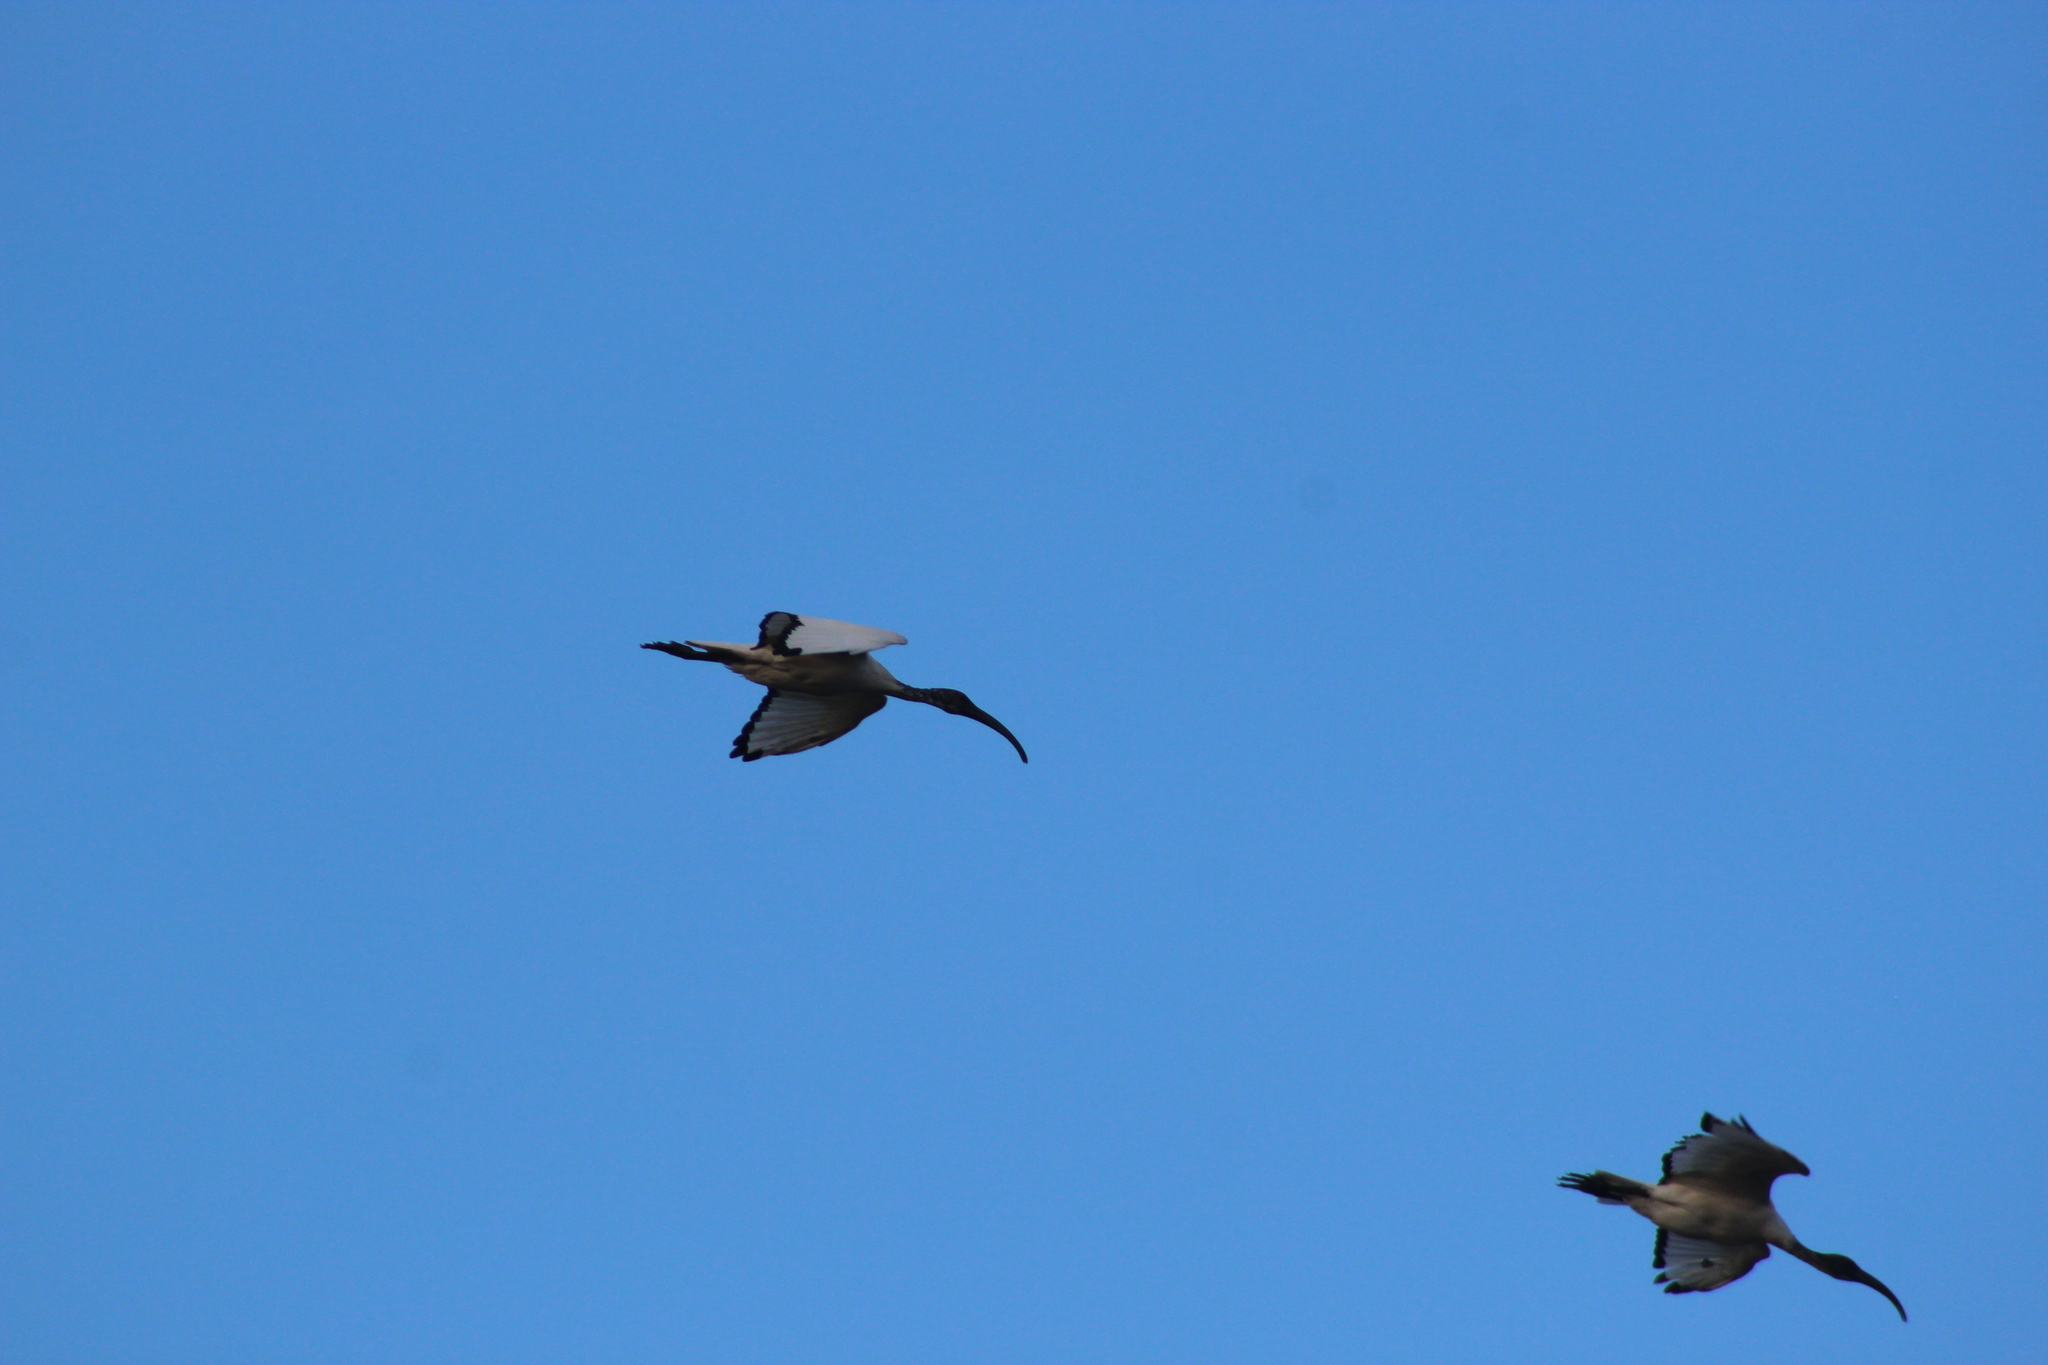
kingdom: Animalia
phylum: Chordata
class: Aves
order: Pelecaniformes
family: Threskiornithidae
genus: Threskiornis
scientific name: Threskiornis aethiopicus
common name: Sacred ibis
